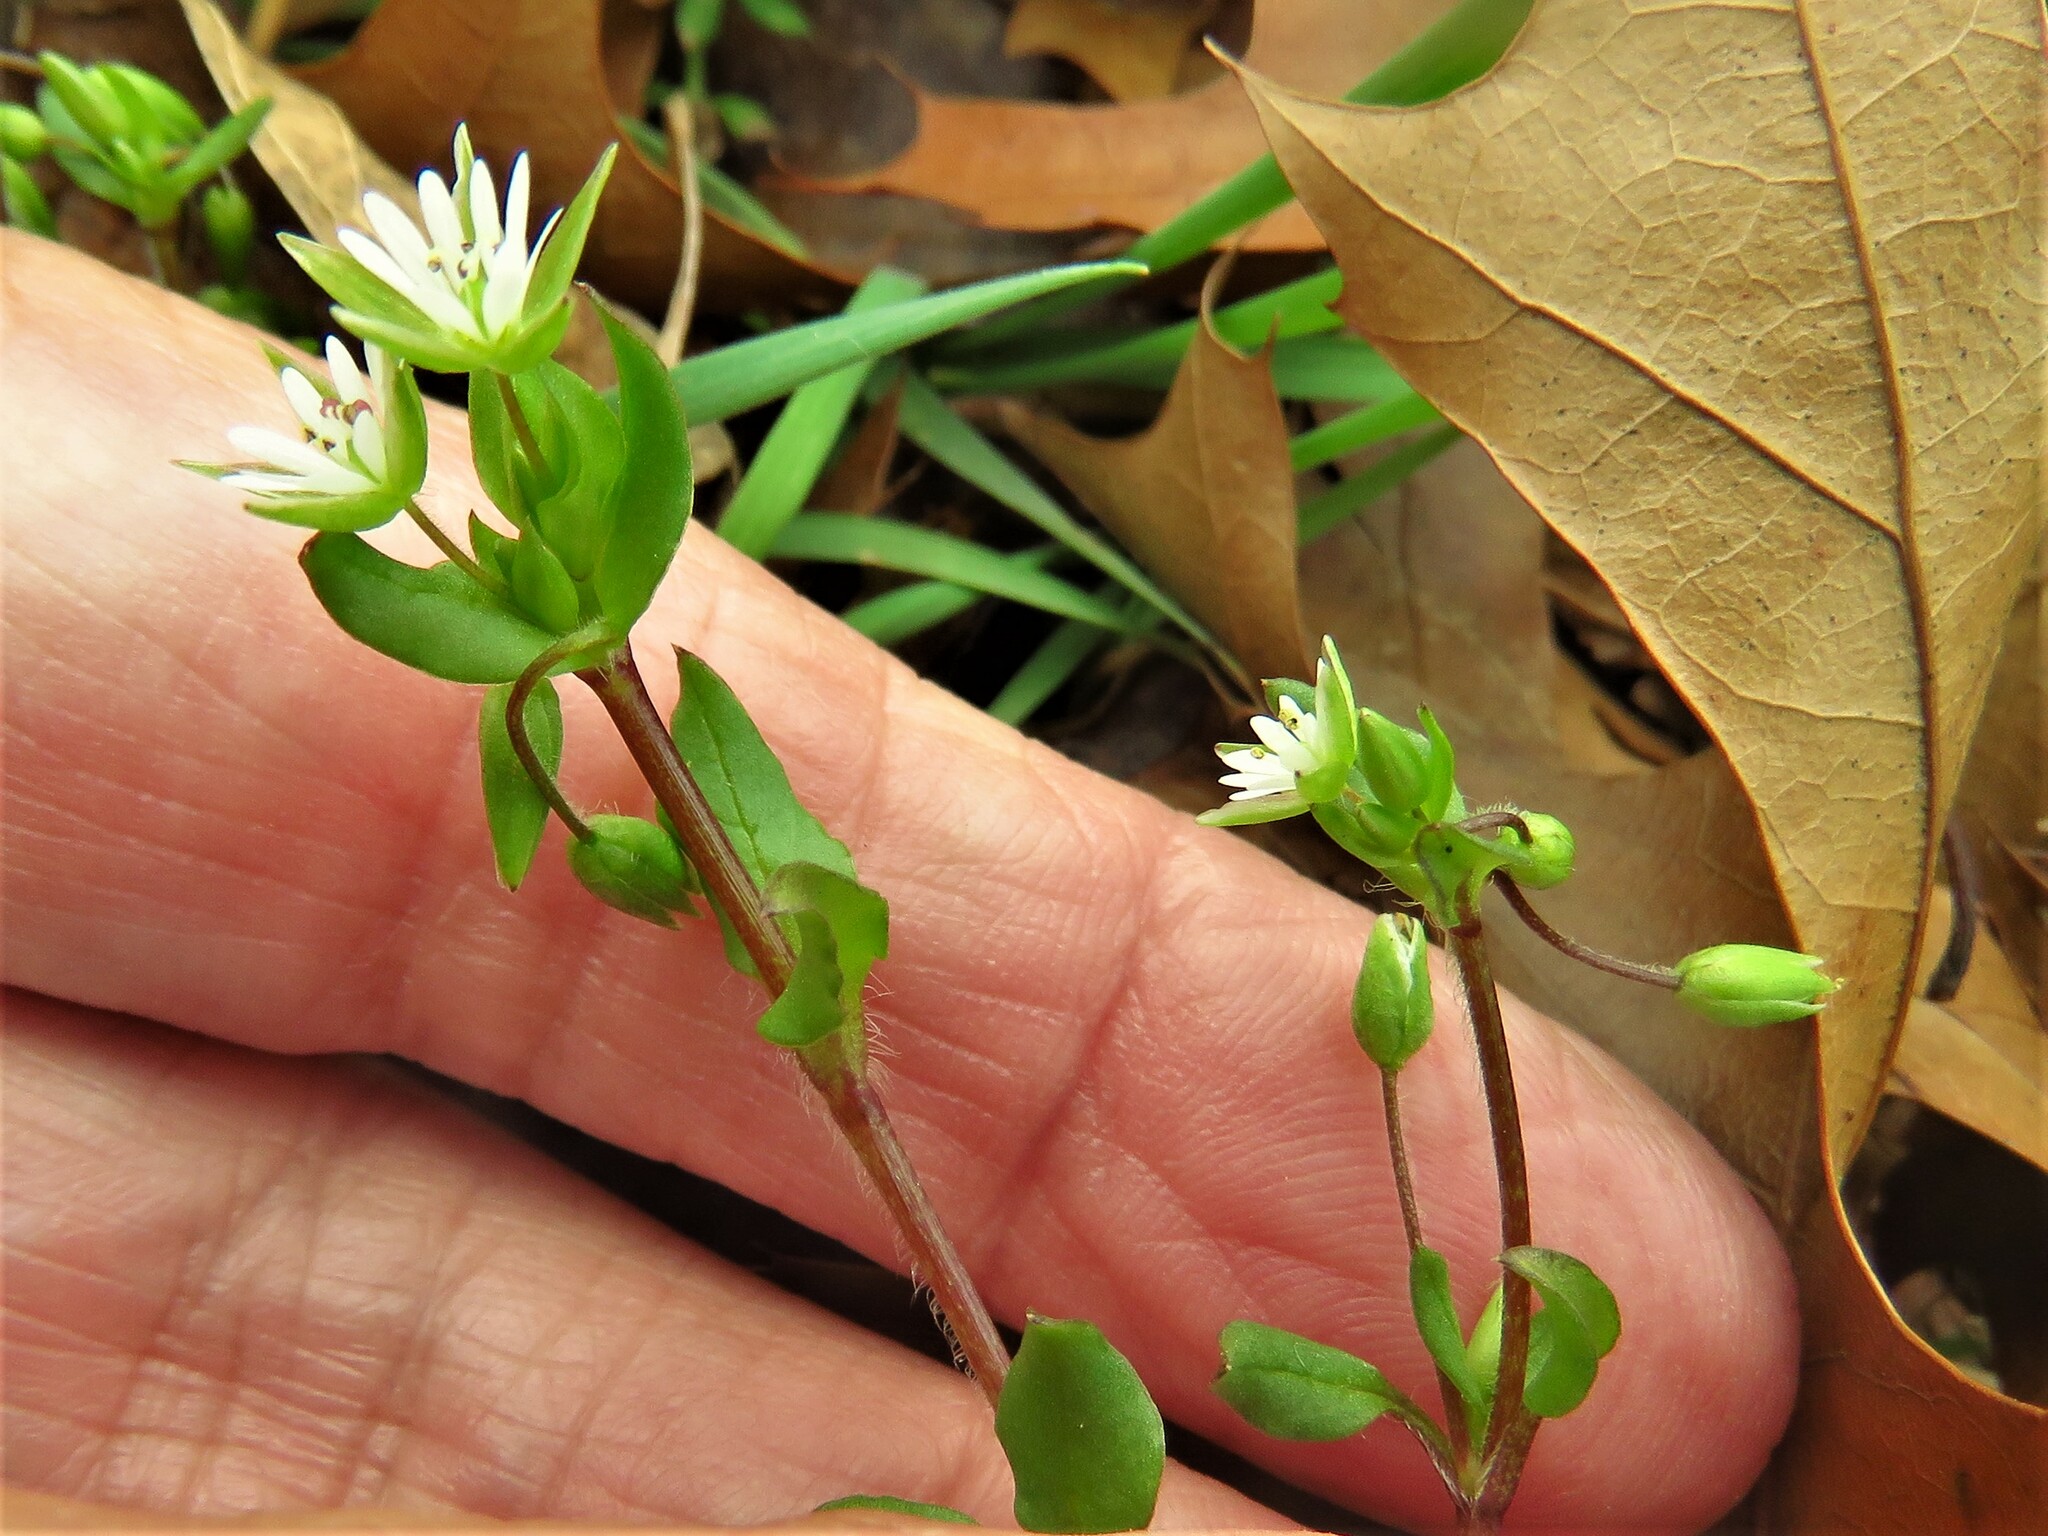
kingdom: Plantae
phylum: Tracheophyta
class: Magnoliopsida
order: Caryophyllales
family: Caryophyllaceae
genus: Stellaria
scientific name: Stellaria media
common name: Common chickweed
